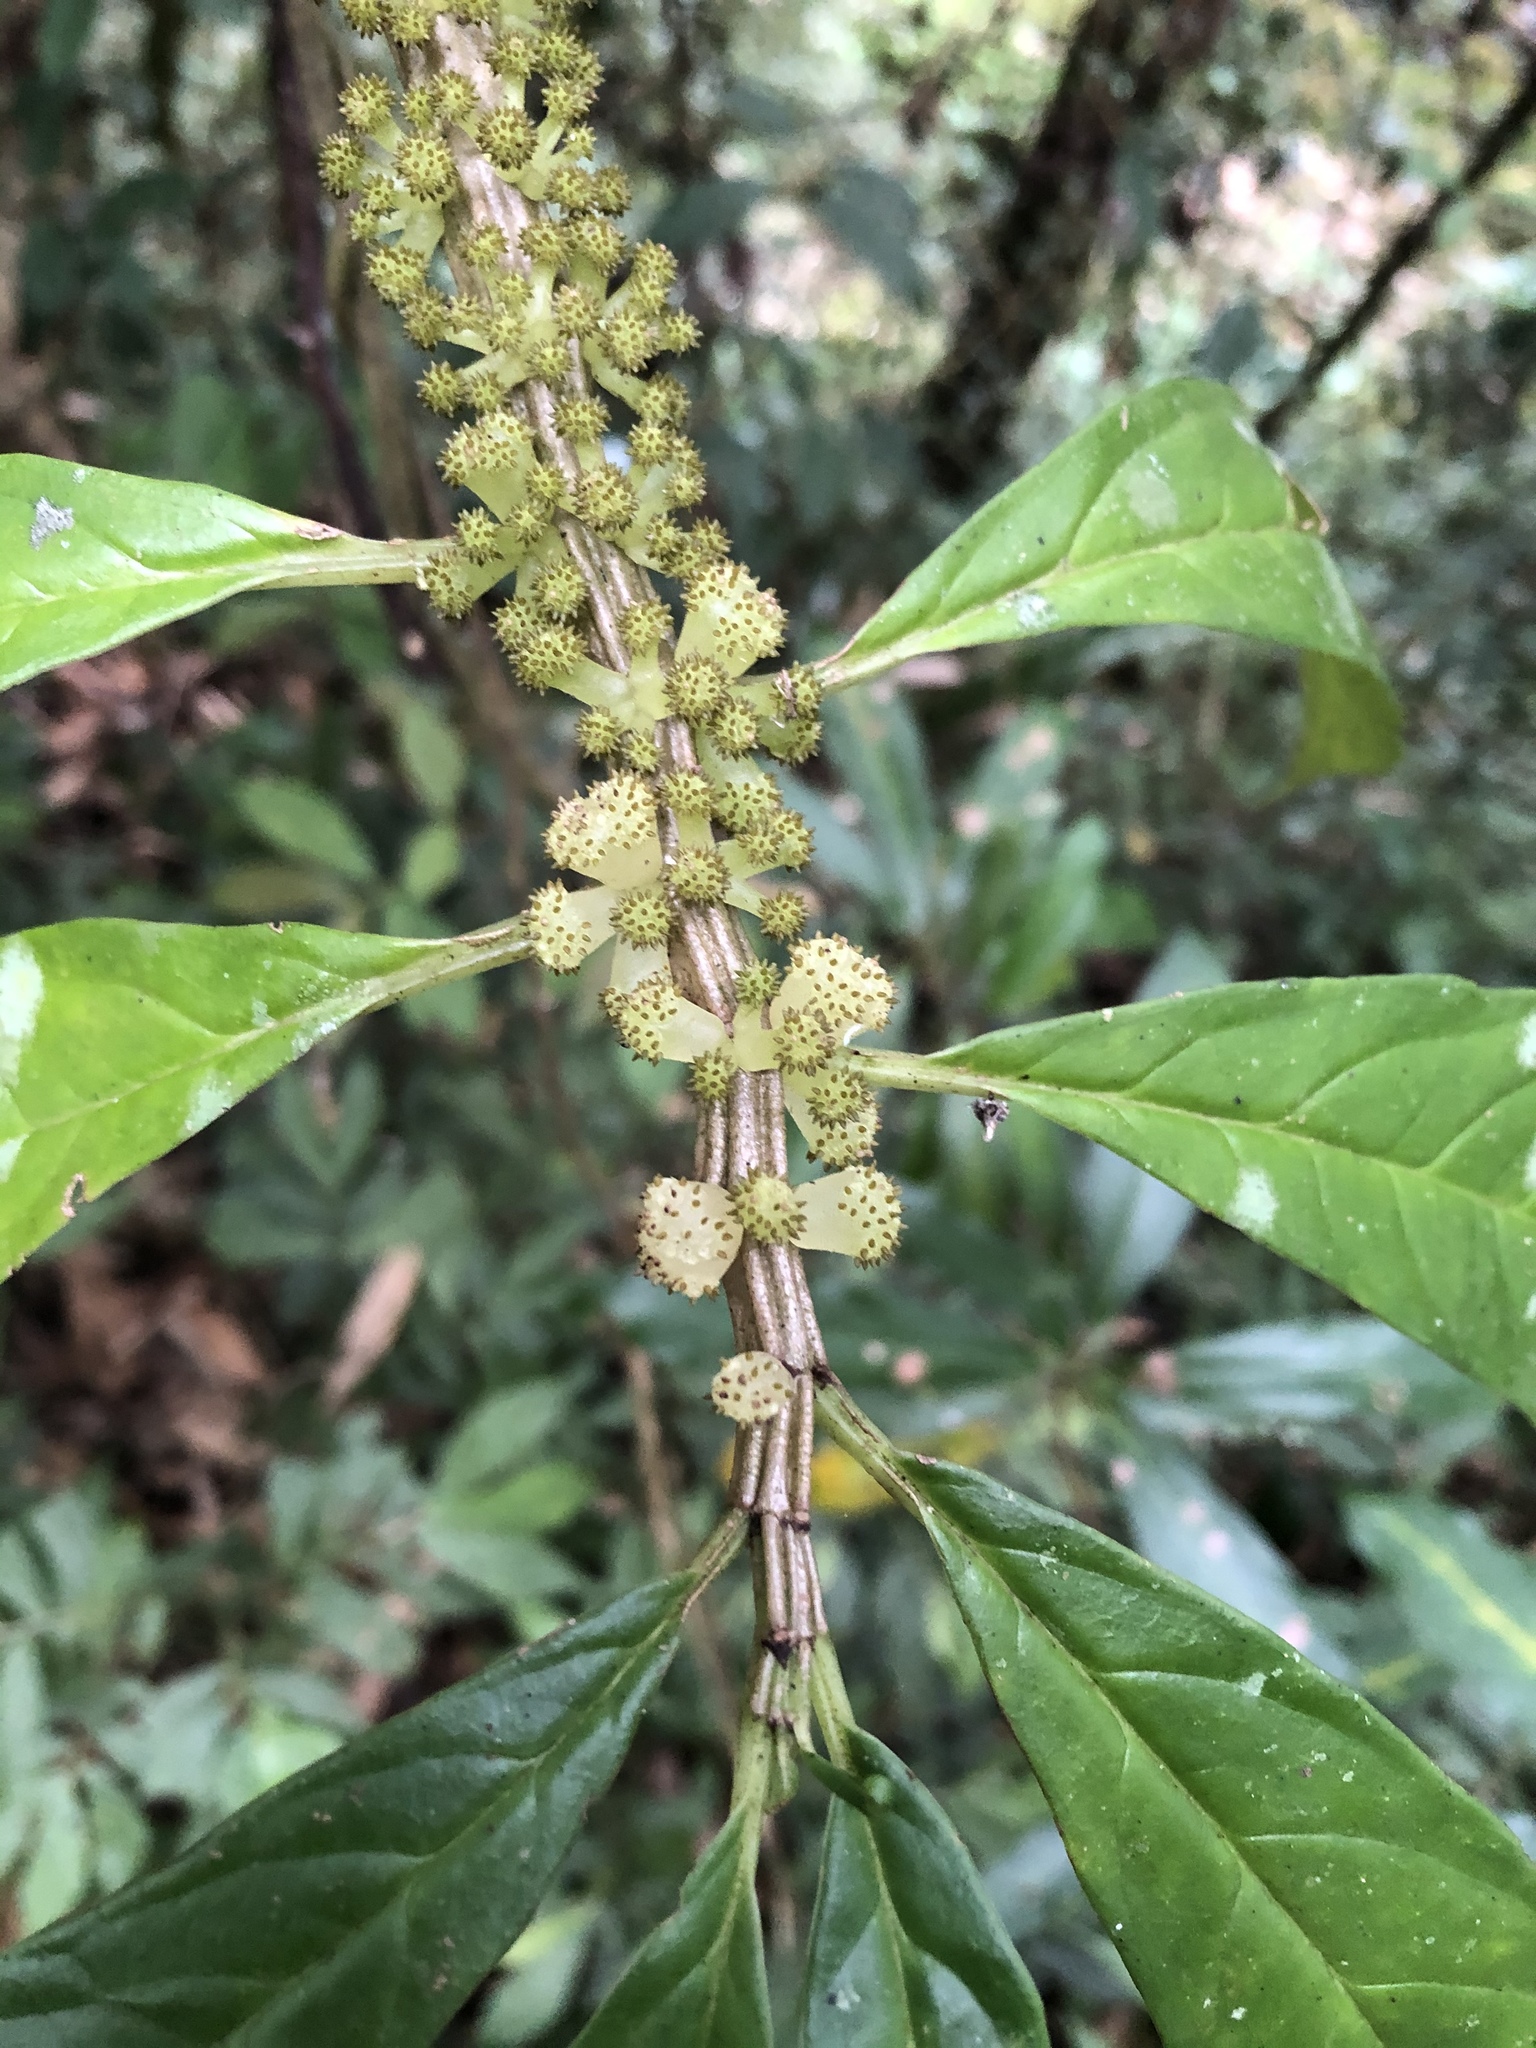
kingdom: Plantae
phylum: Tracheophyta
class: Magnoliopsida
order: Rosales
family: Urticaceae
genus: Procris
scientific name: Procris
